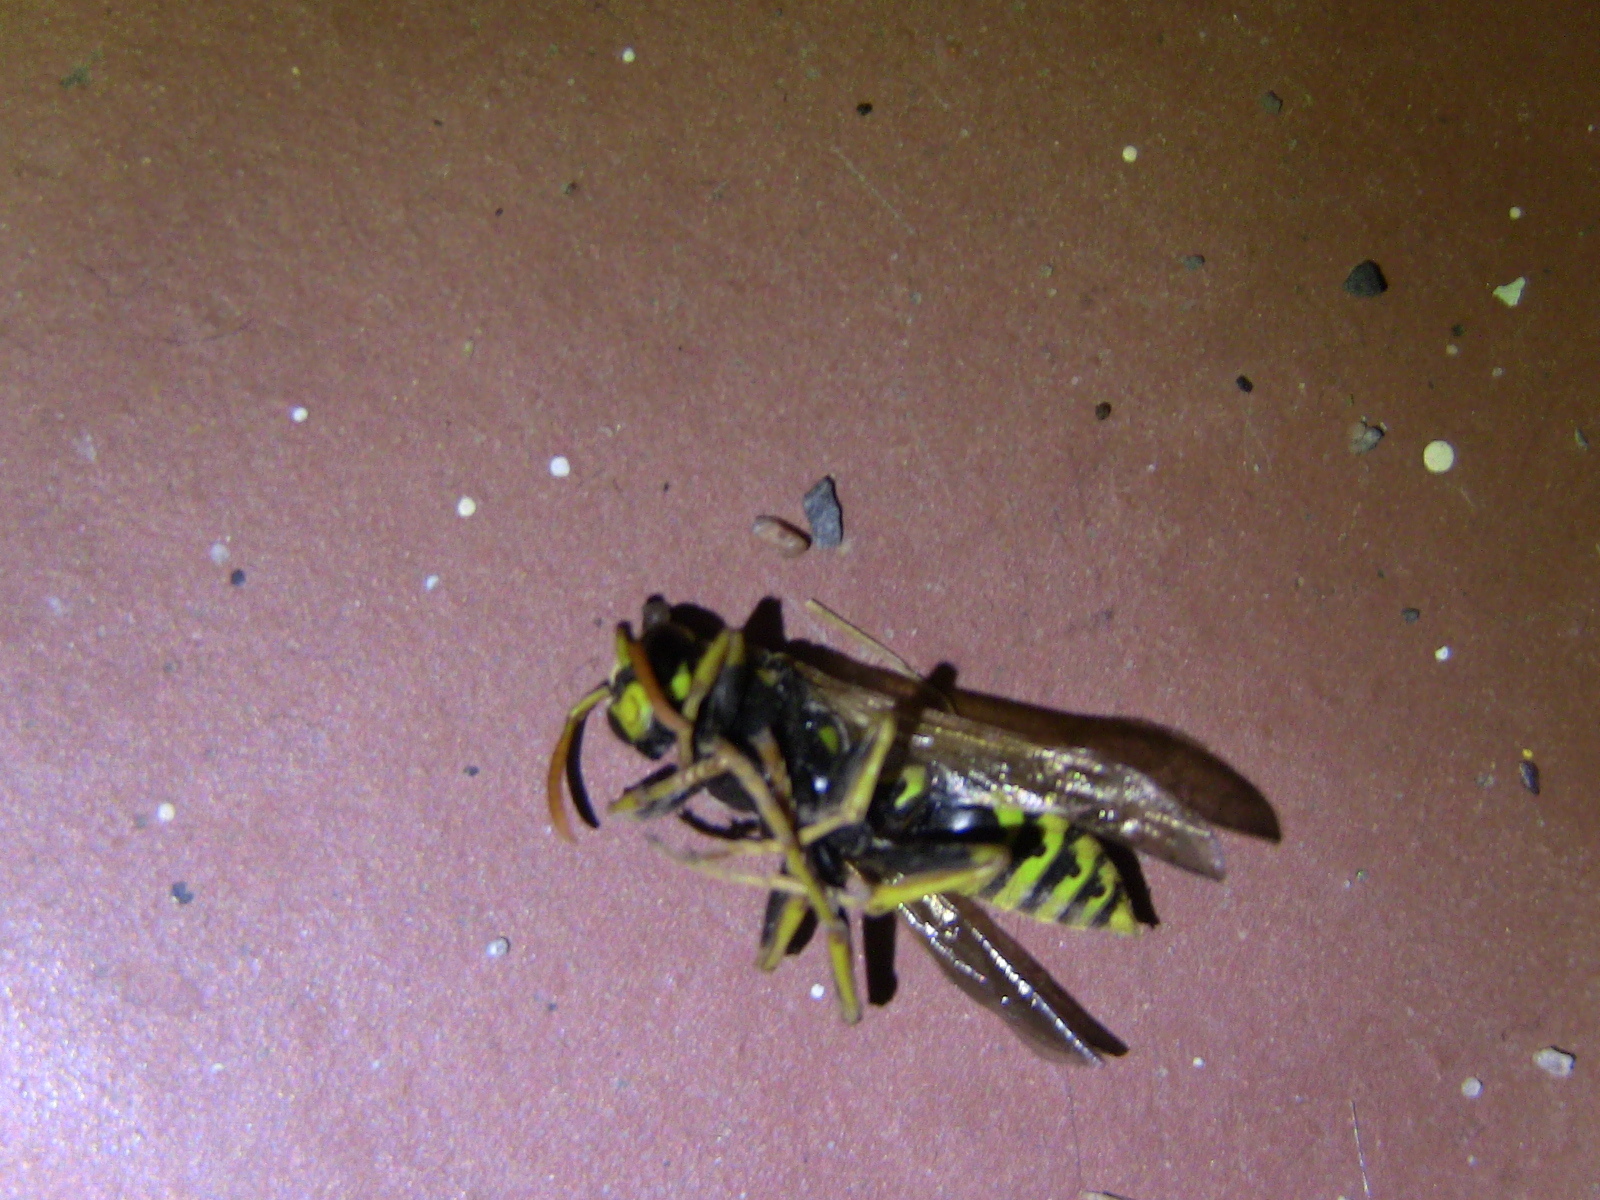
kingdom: Animalia
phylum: Arthropoda
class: Insecta
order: Hymenoptera
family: Eumenidae
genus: Polistes
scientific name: Polistes dominula
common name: Paper wasp
